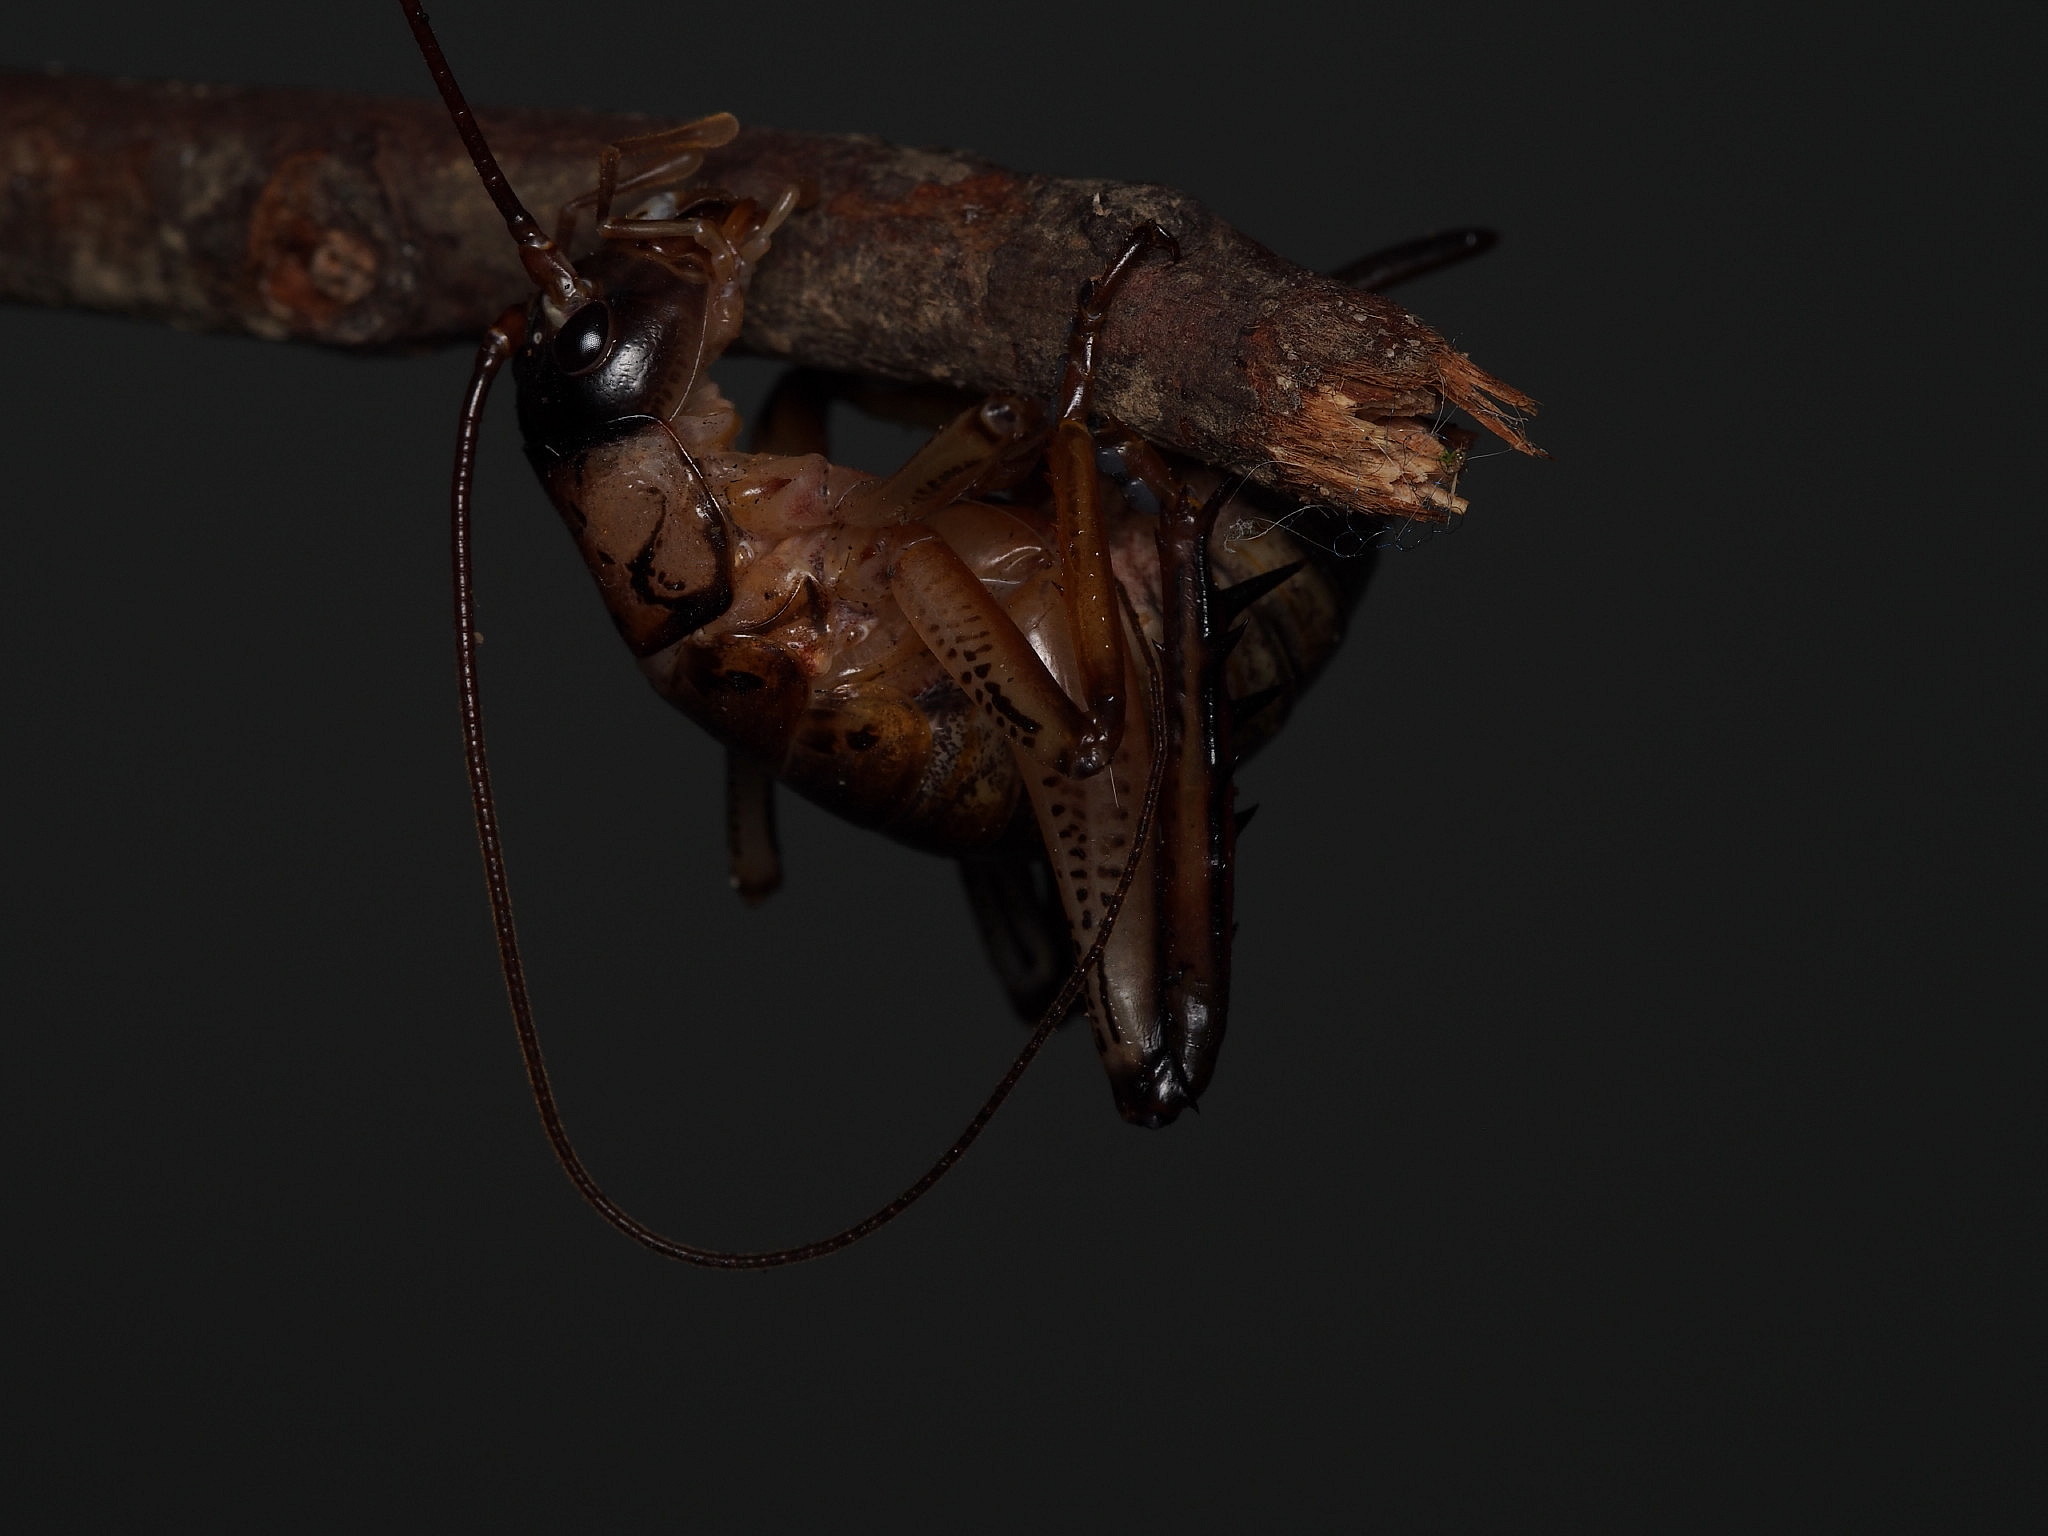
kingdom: Animalia
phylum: Arthropoda
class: Insecta
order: Orthoptera
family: Anostostomatidae
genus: Hemideina
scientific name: Hemideina thoracica
